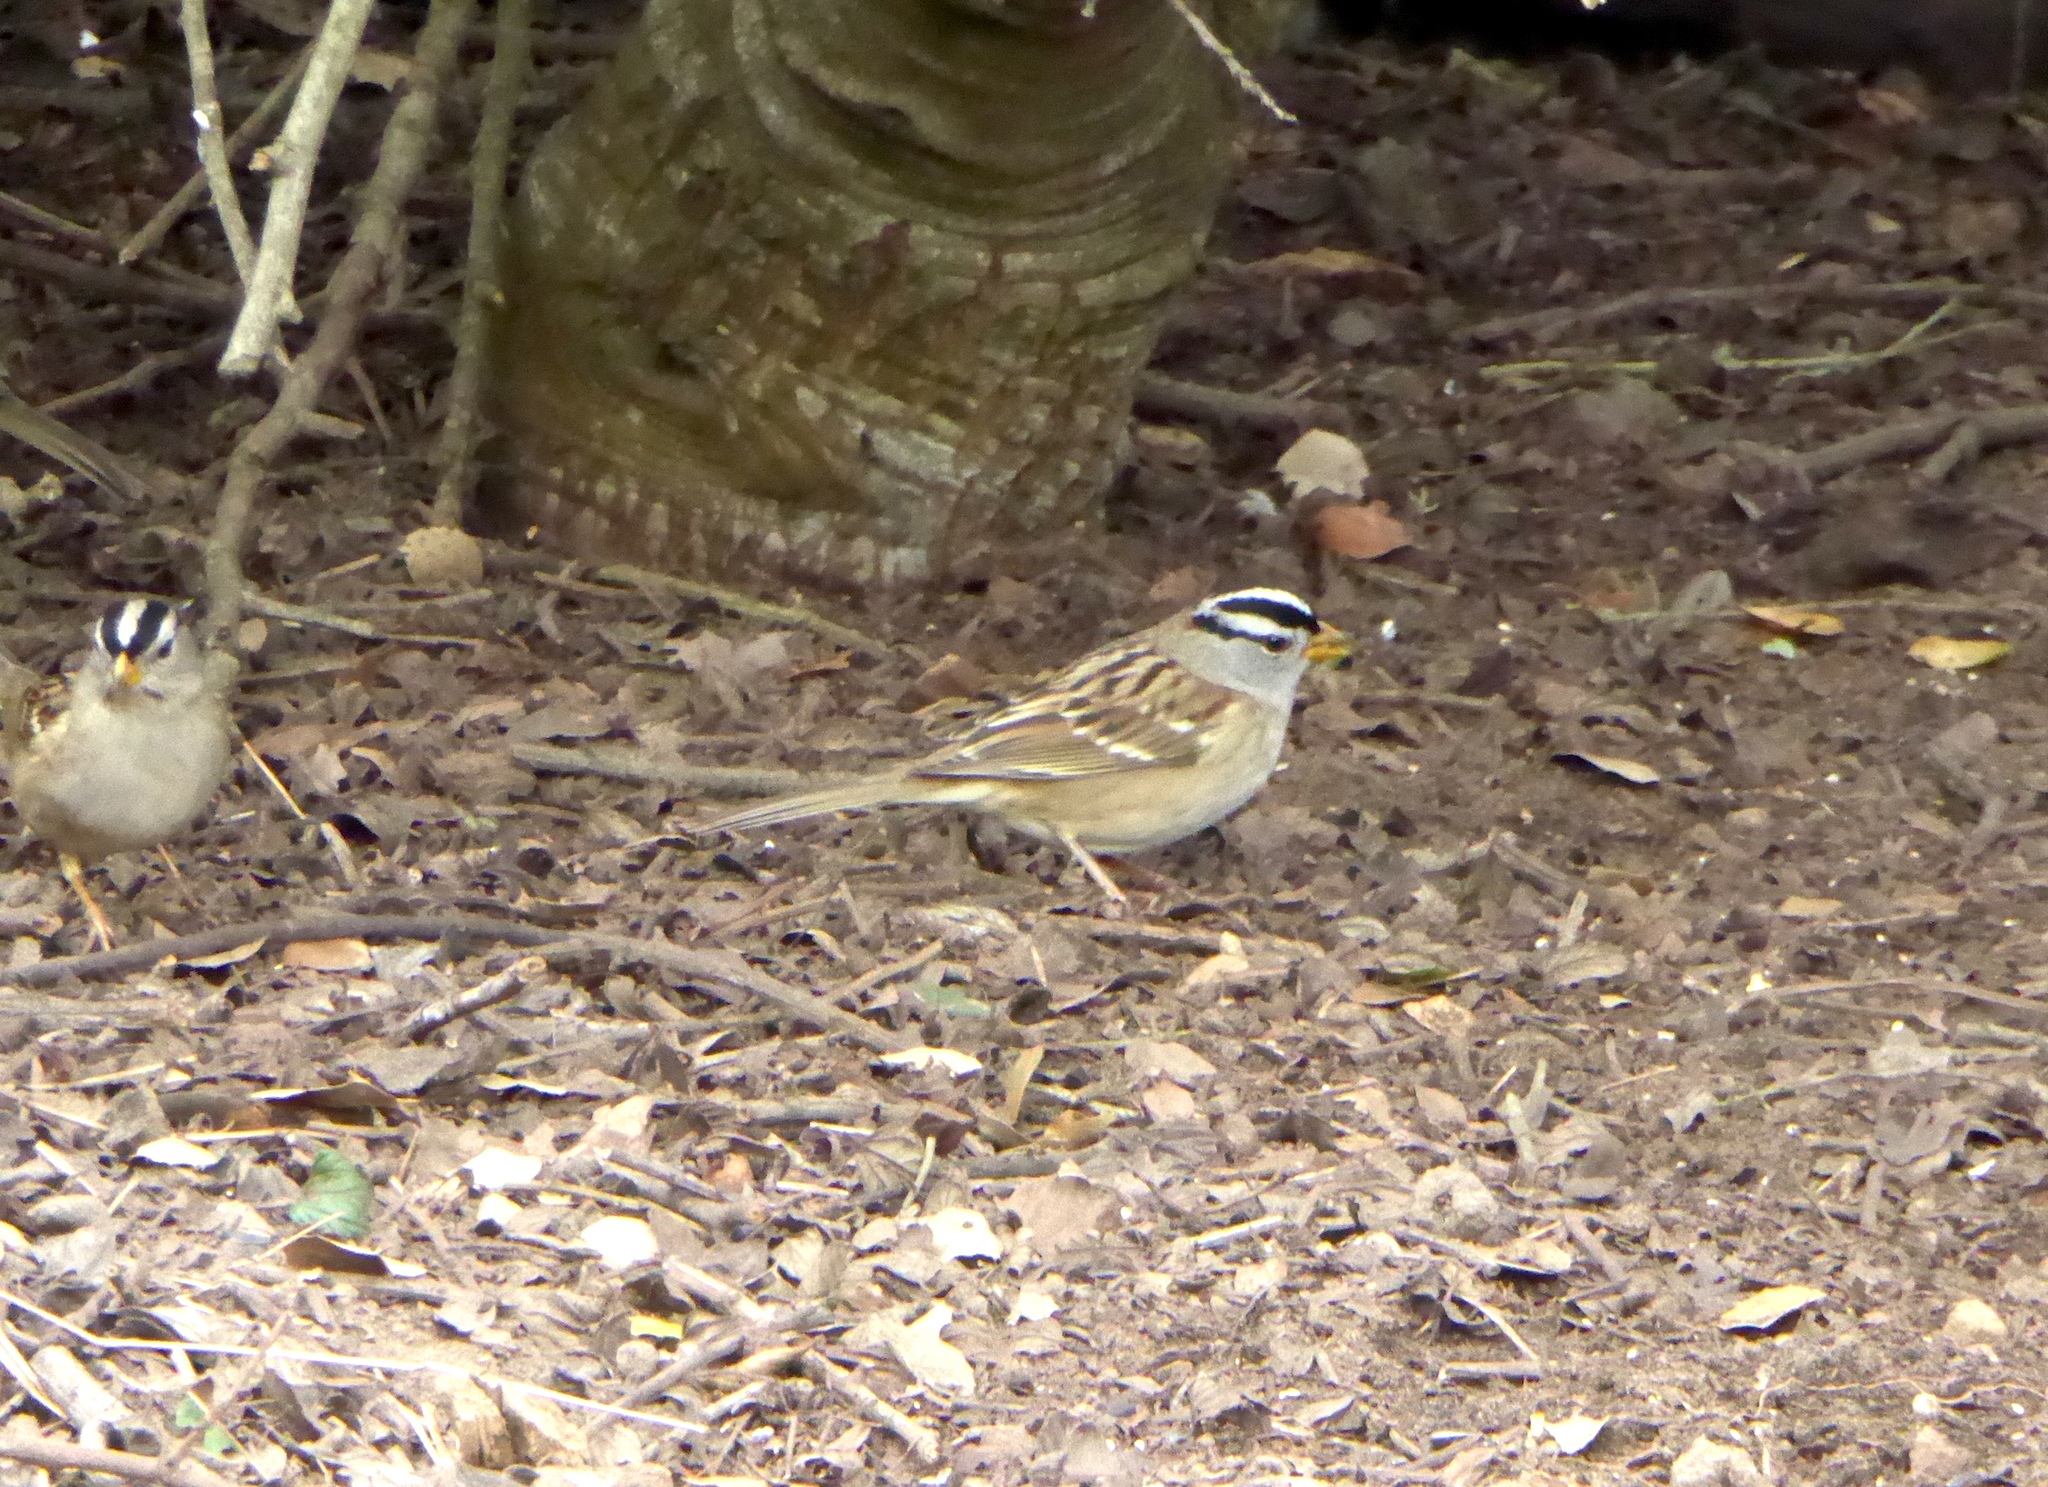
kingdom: Animalia
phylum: Chordata
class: Aves
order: Passeriformes
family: Passerellidae
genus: Zonotrichia
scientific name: Zonotrichia leucophrys
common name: White-crowned sparrow
